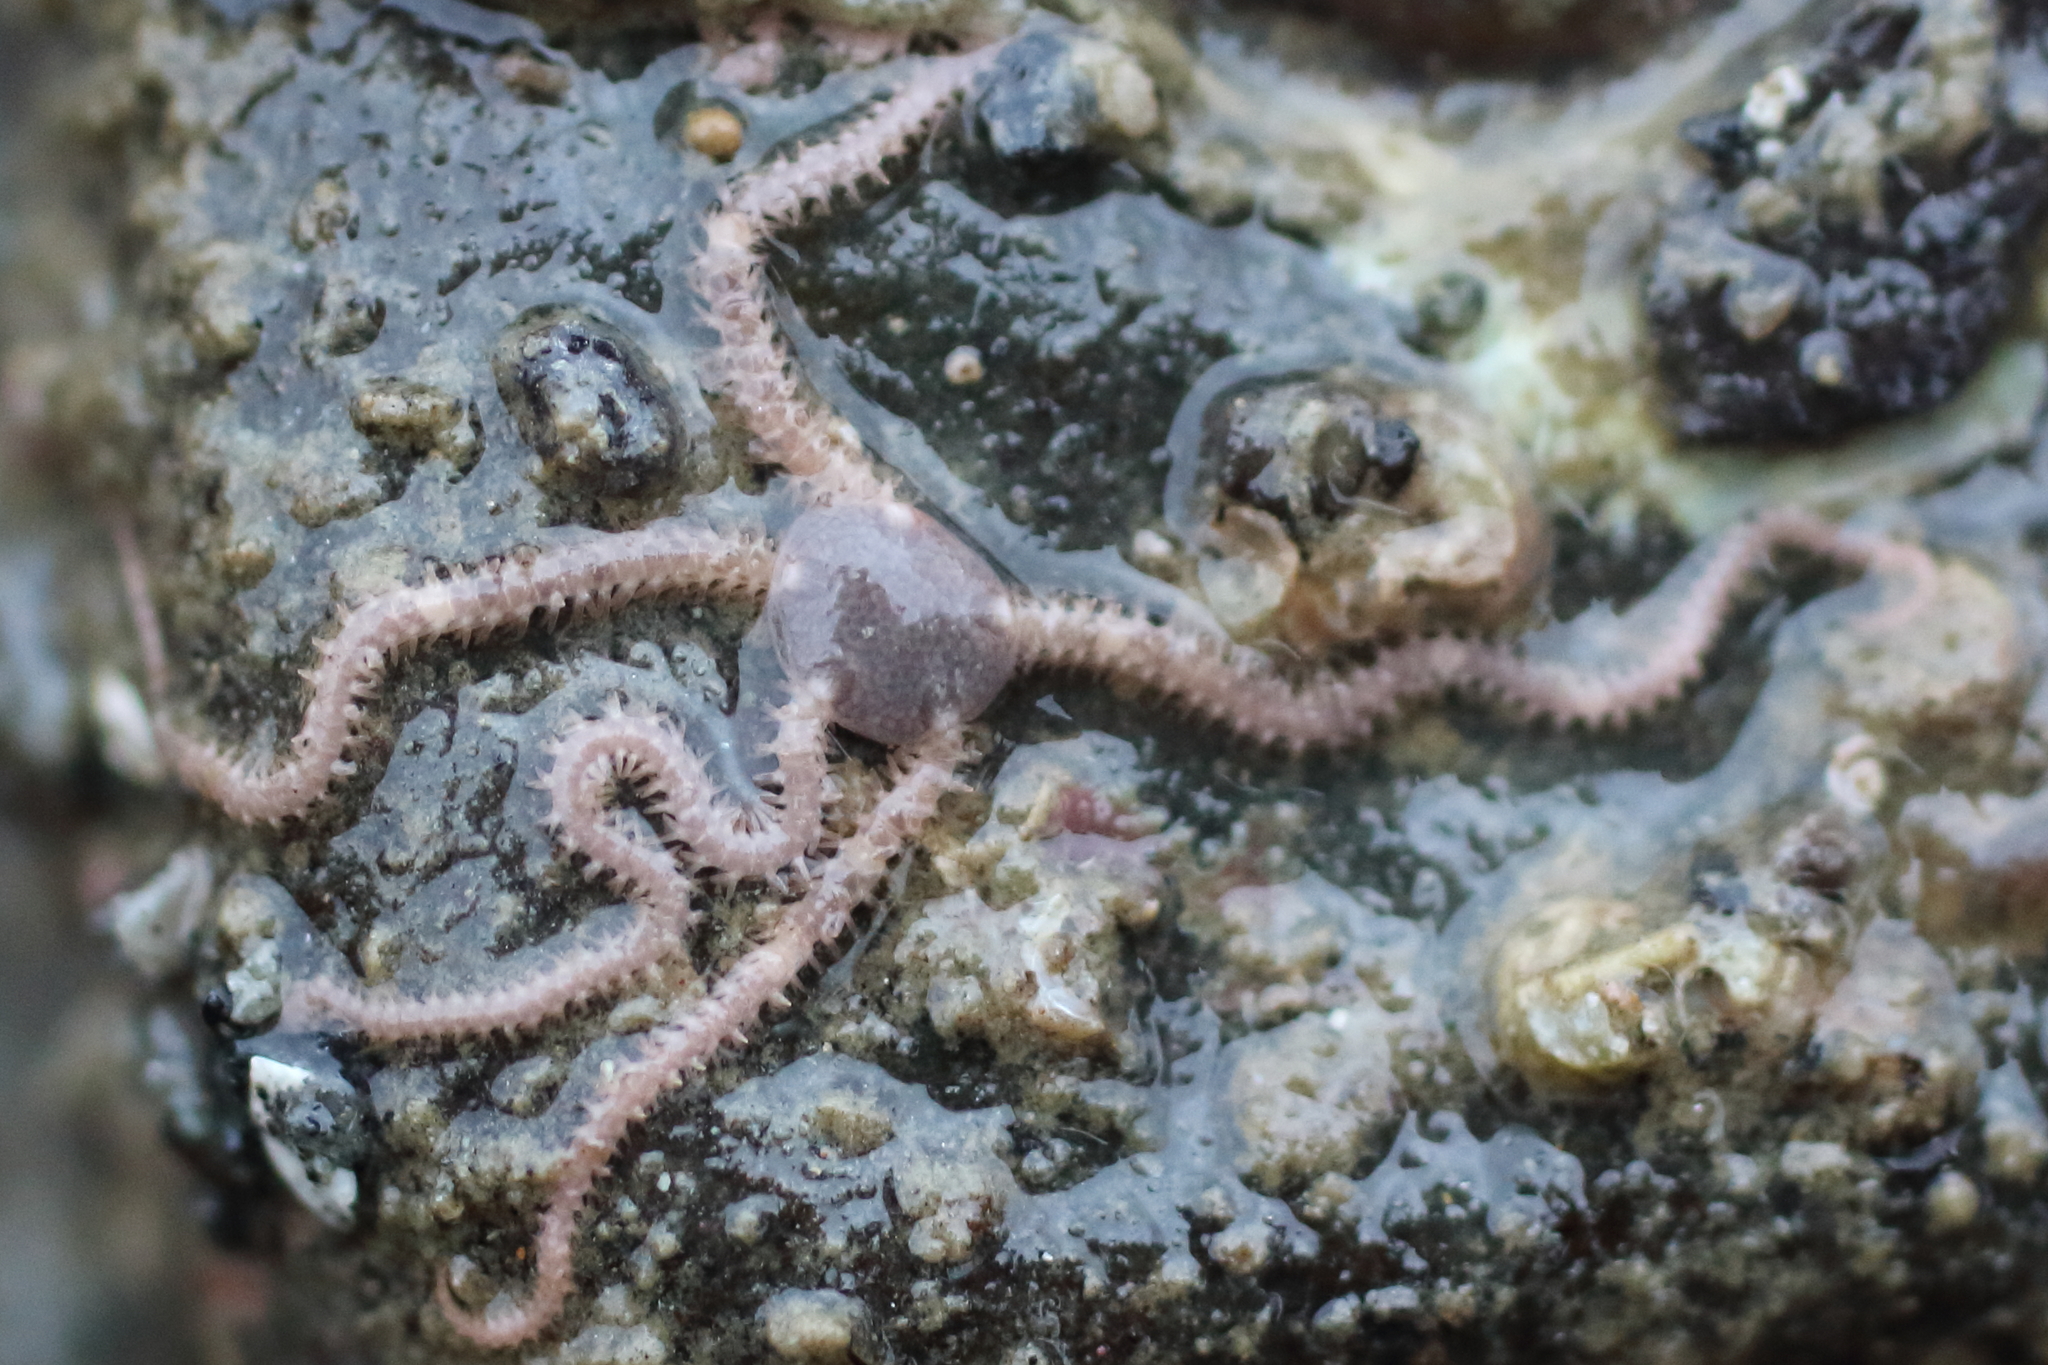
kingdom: Animalia
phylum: Echinodermata
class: Ophiuroidea
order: Amphilepidida
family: Amphiuridae
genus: Amphipholis
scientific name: Amphipholis squamata
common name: Brooding snake star
